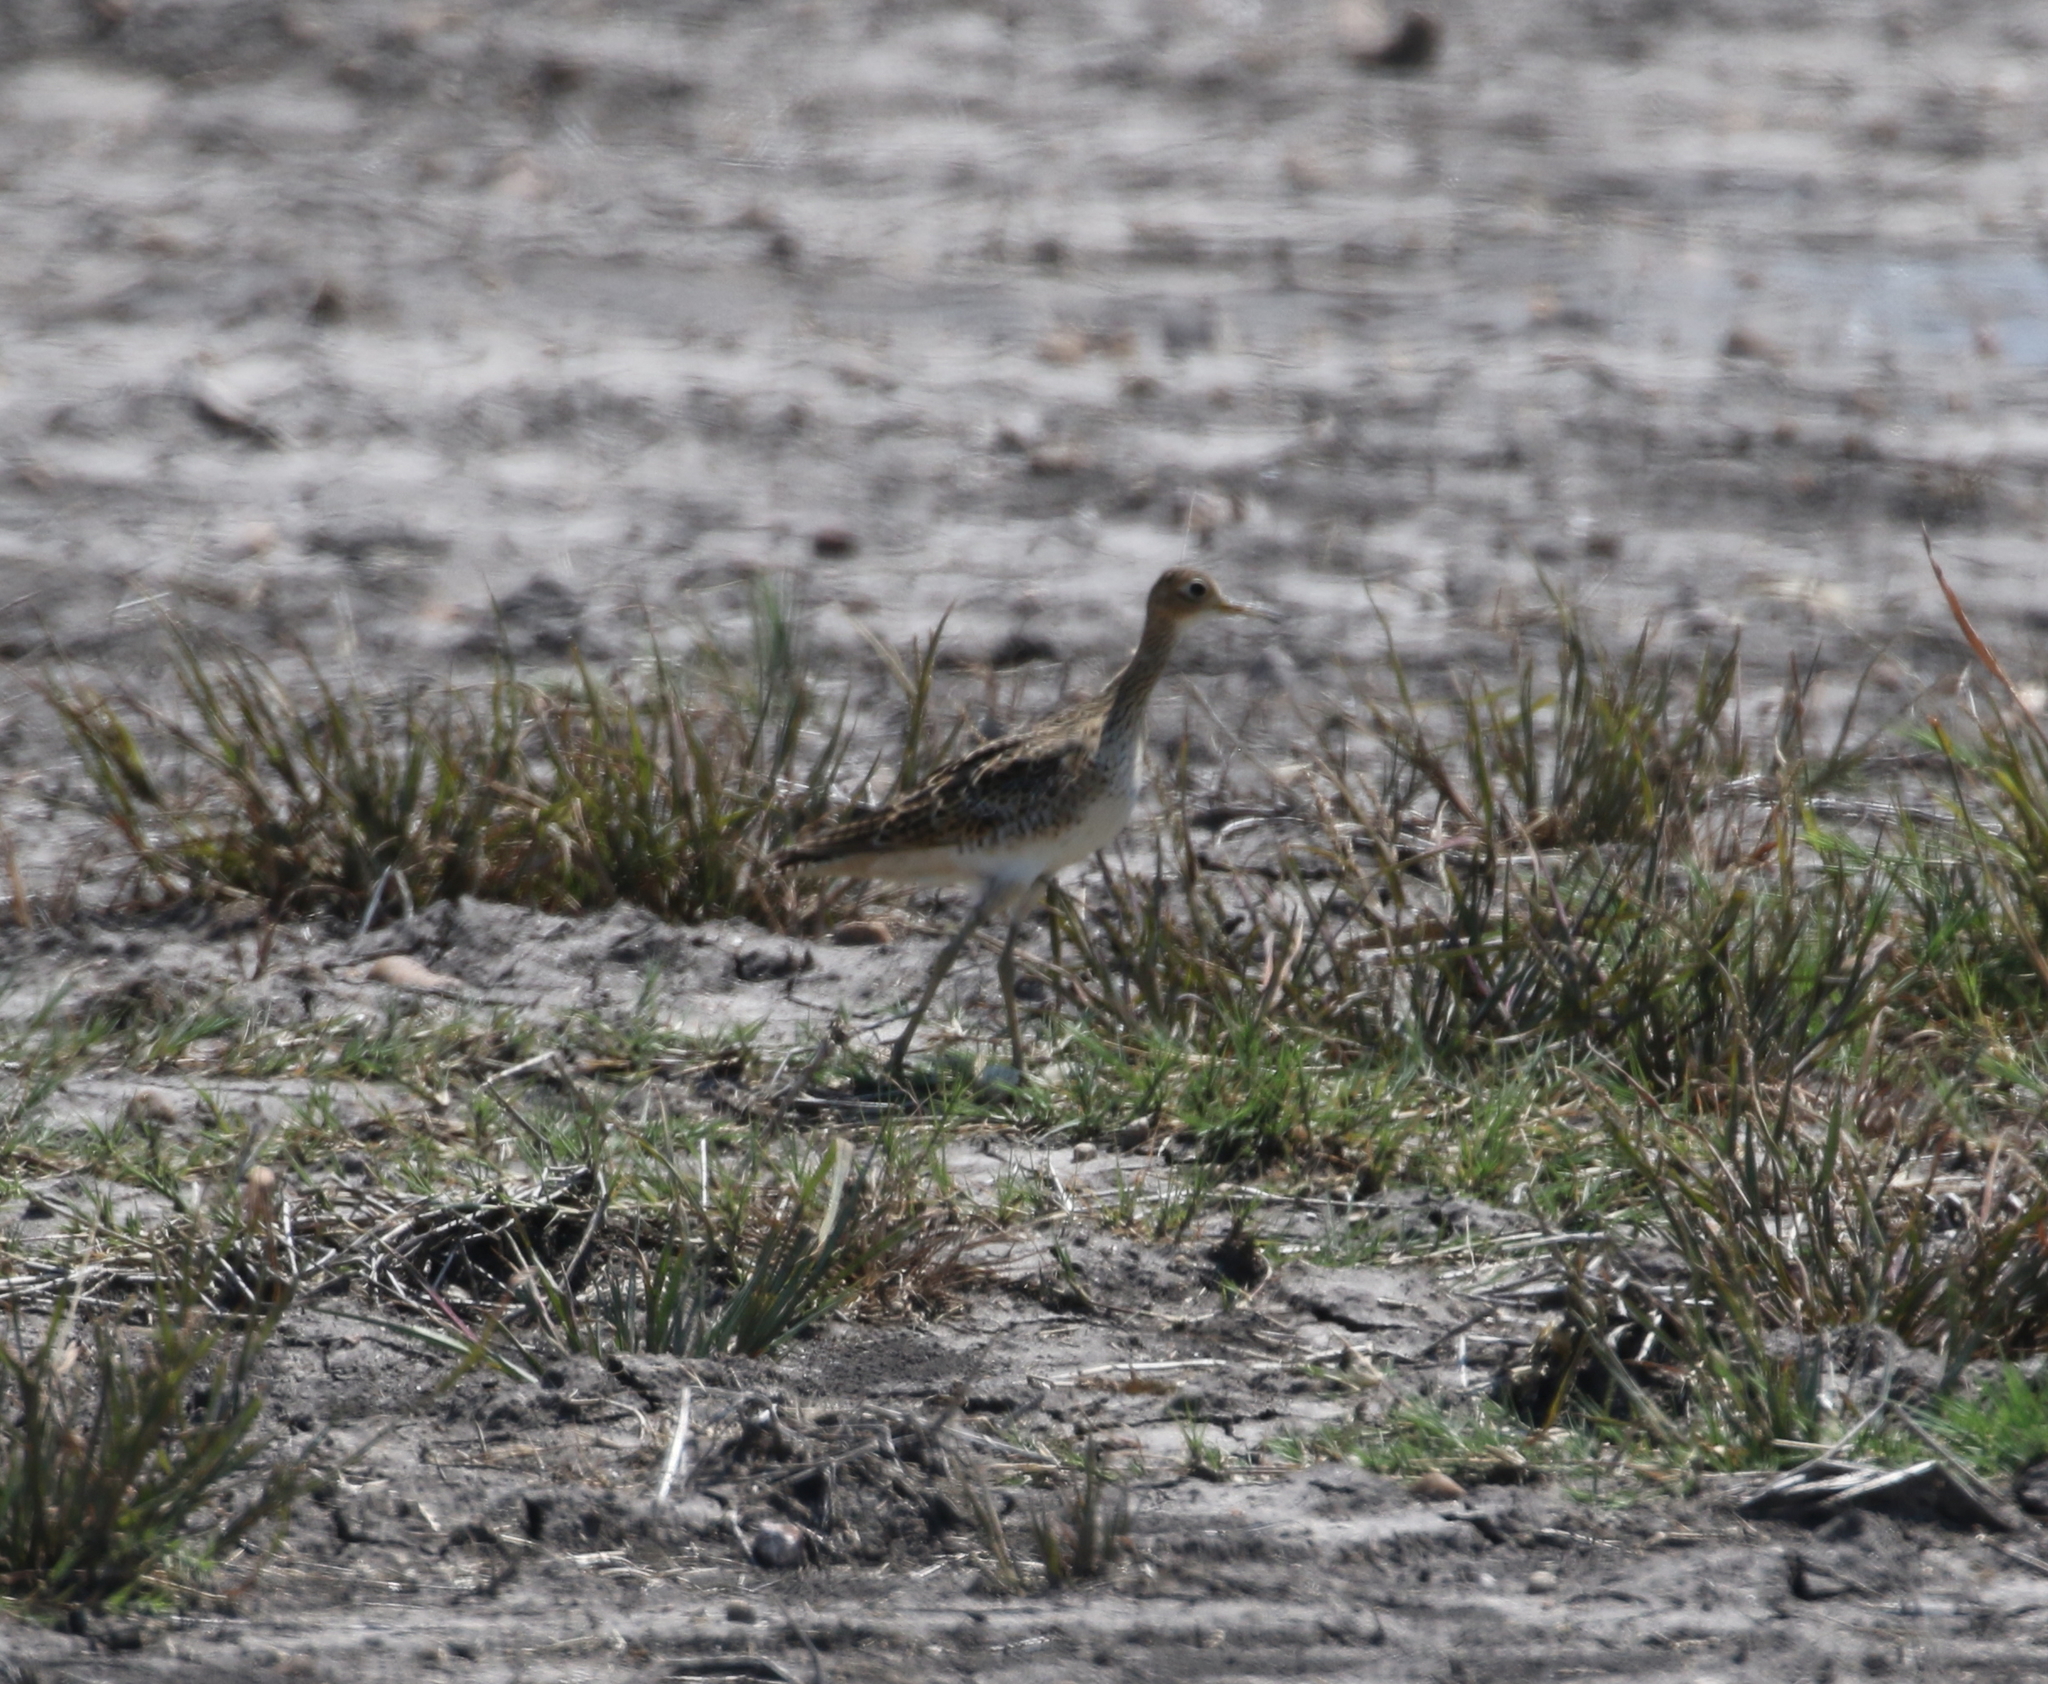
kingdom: Animalia
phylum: Chordata
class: Aves
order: Charadriiformes
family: Scolopacidae
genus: Bartramia
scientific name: Bartramia longicauda
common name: Upland sandpiper
